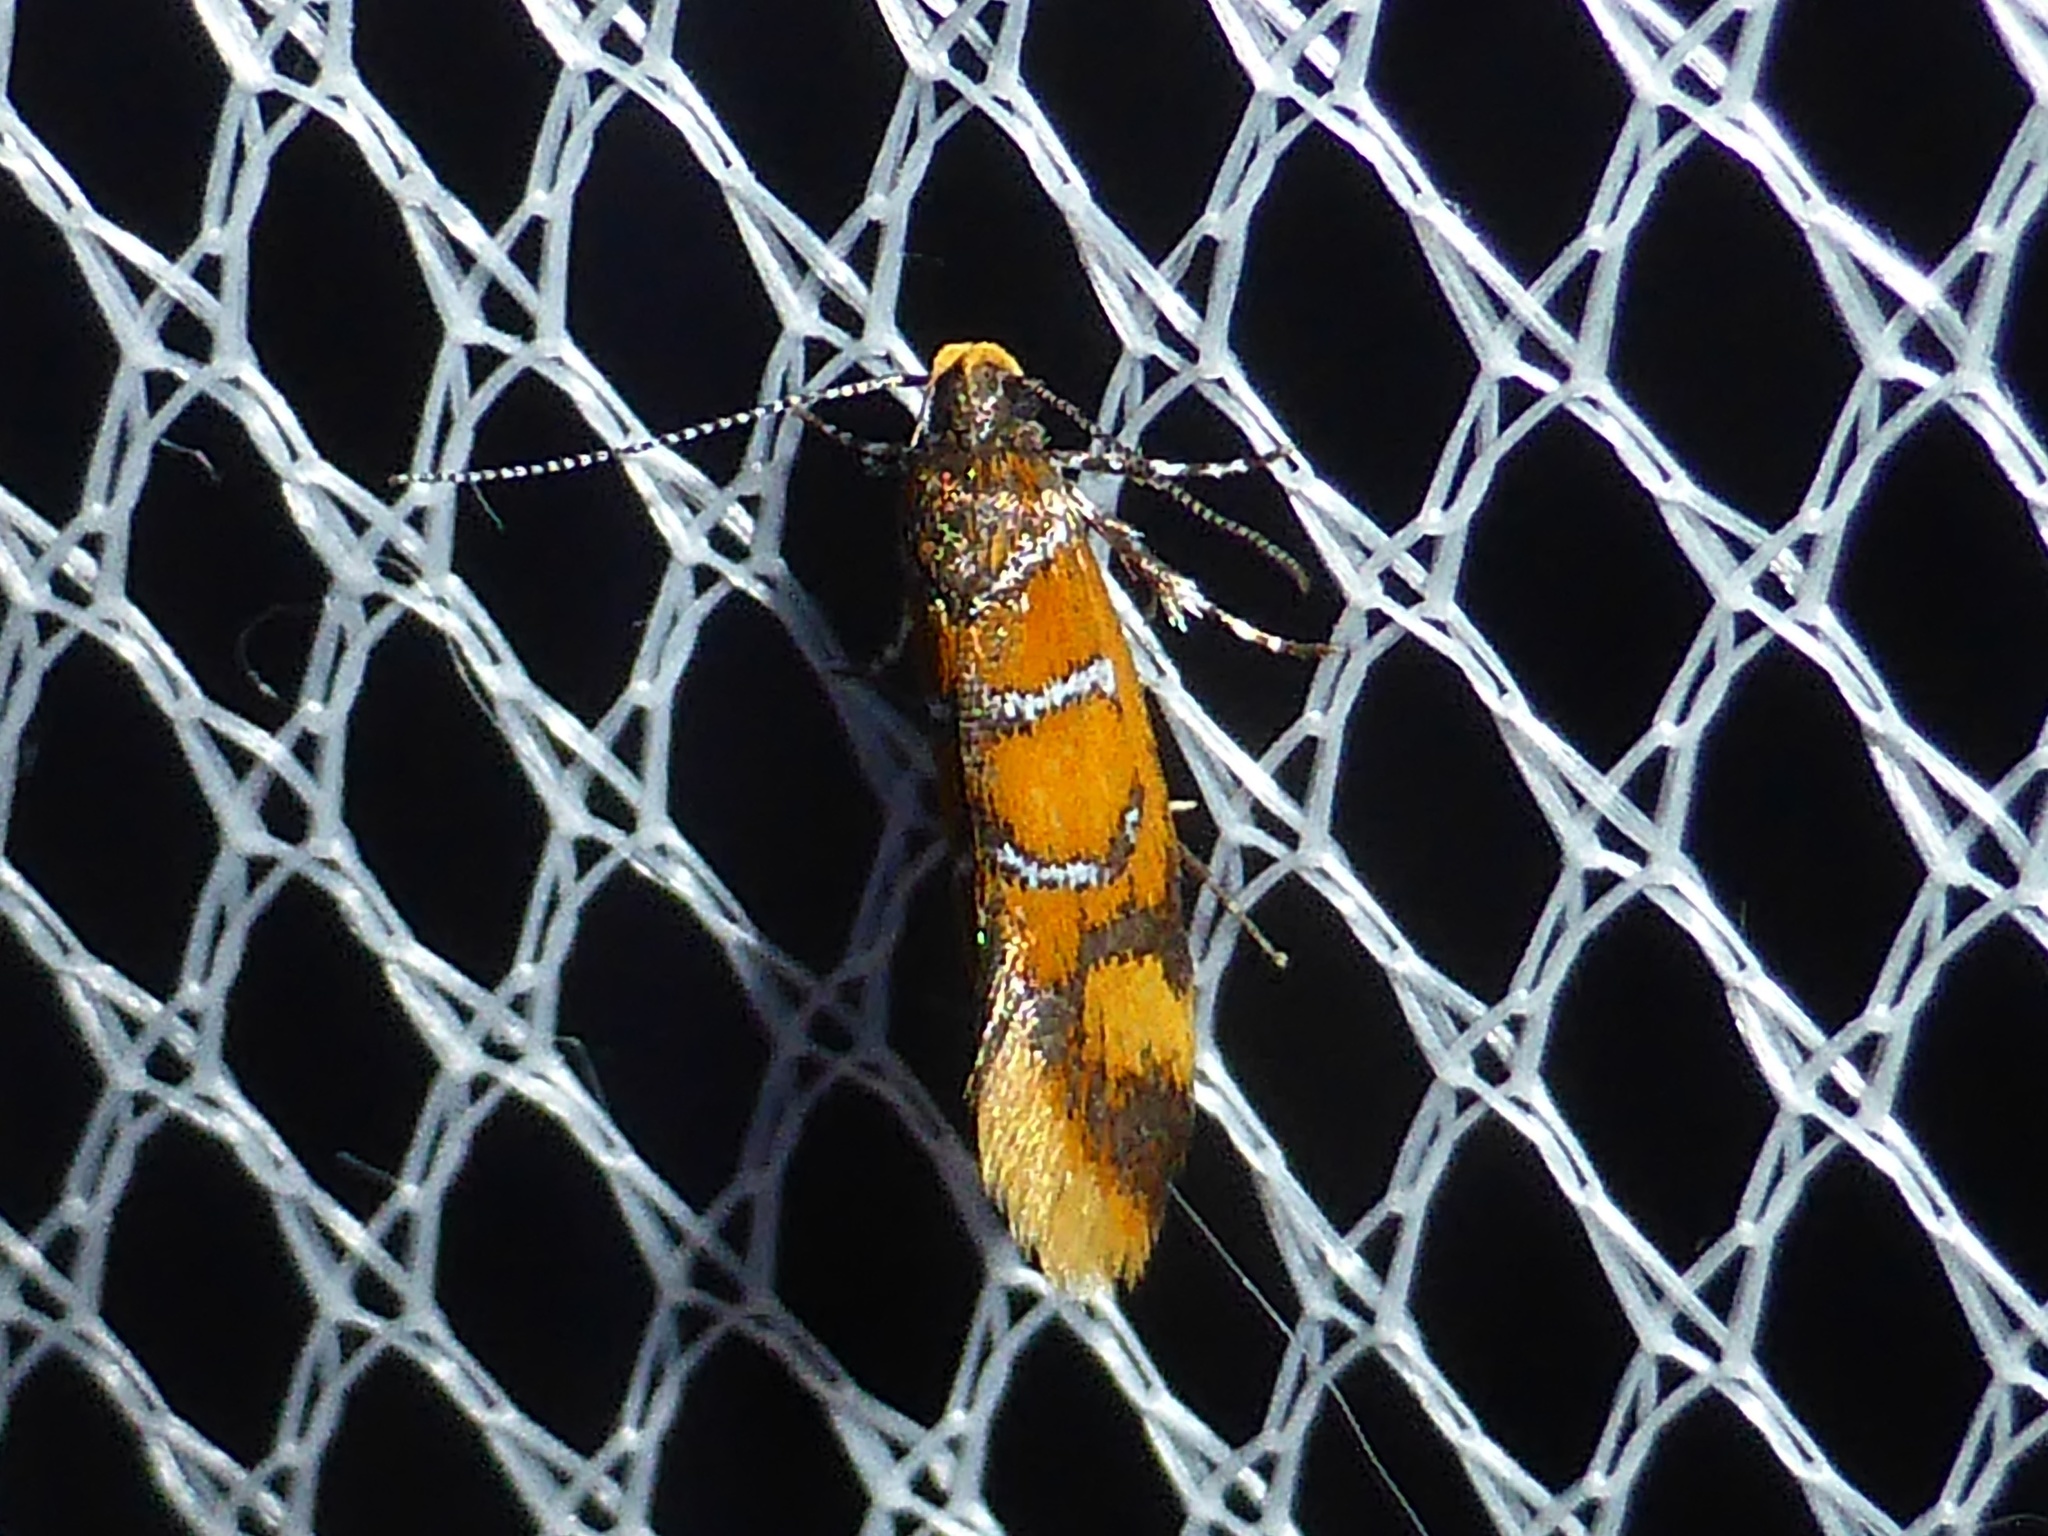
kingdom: Animalia
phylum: Arthropoda
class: Insecta
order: Lepidoptera
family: Oecophoridae
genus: Schiffermuelleria
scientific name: Schiffermuelleria procerella
